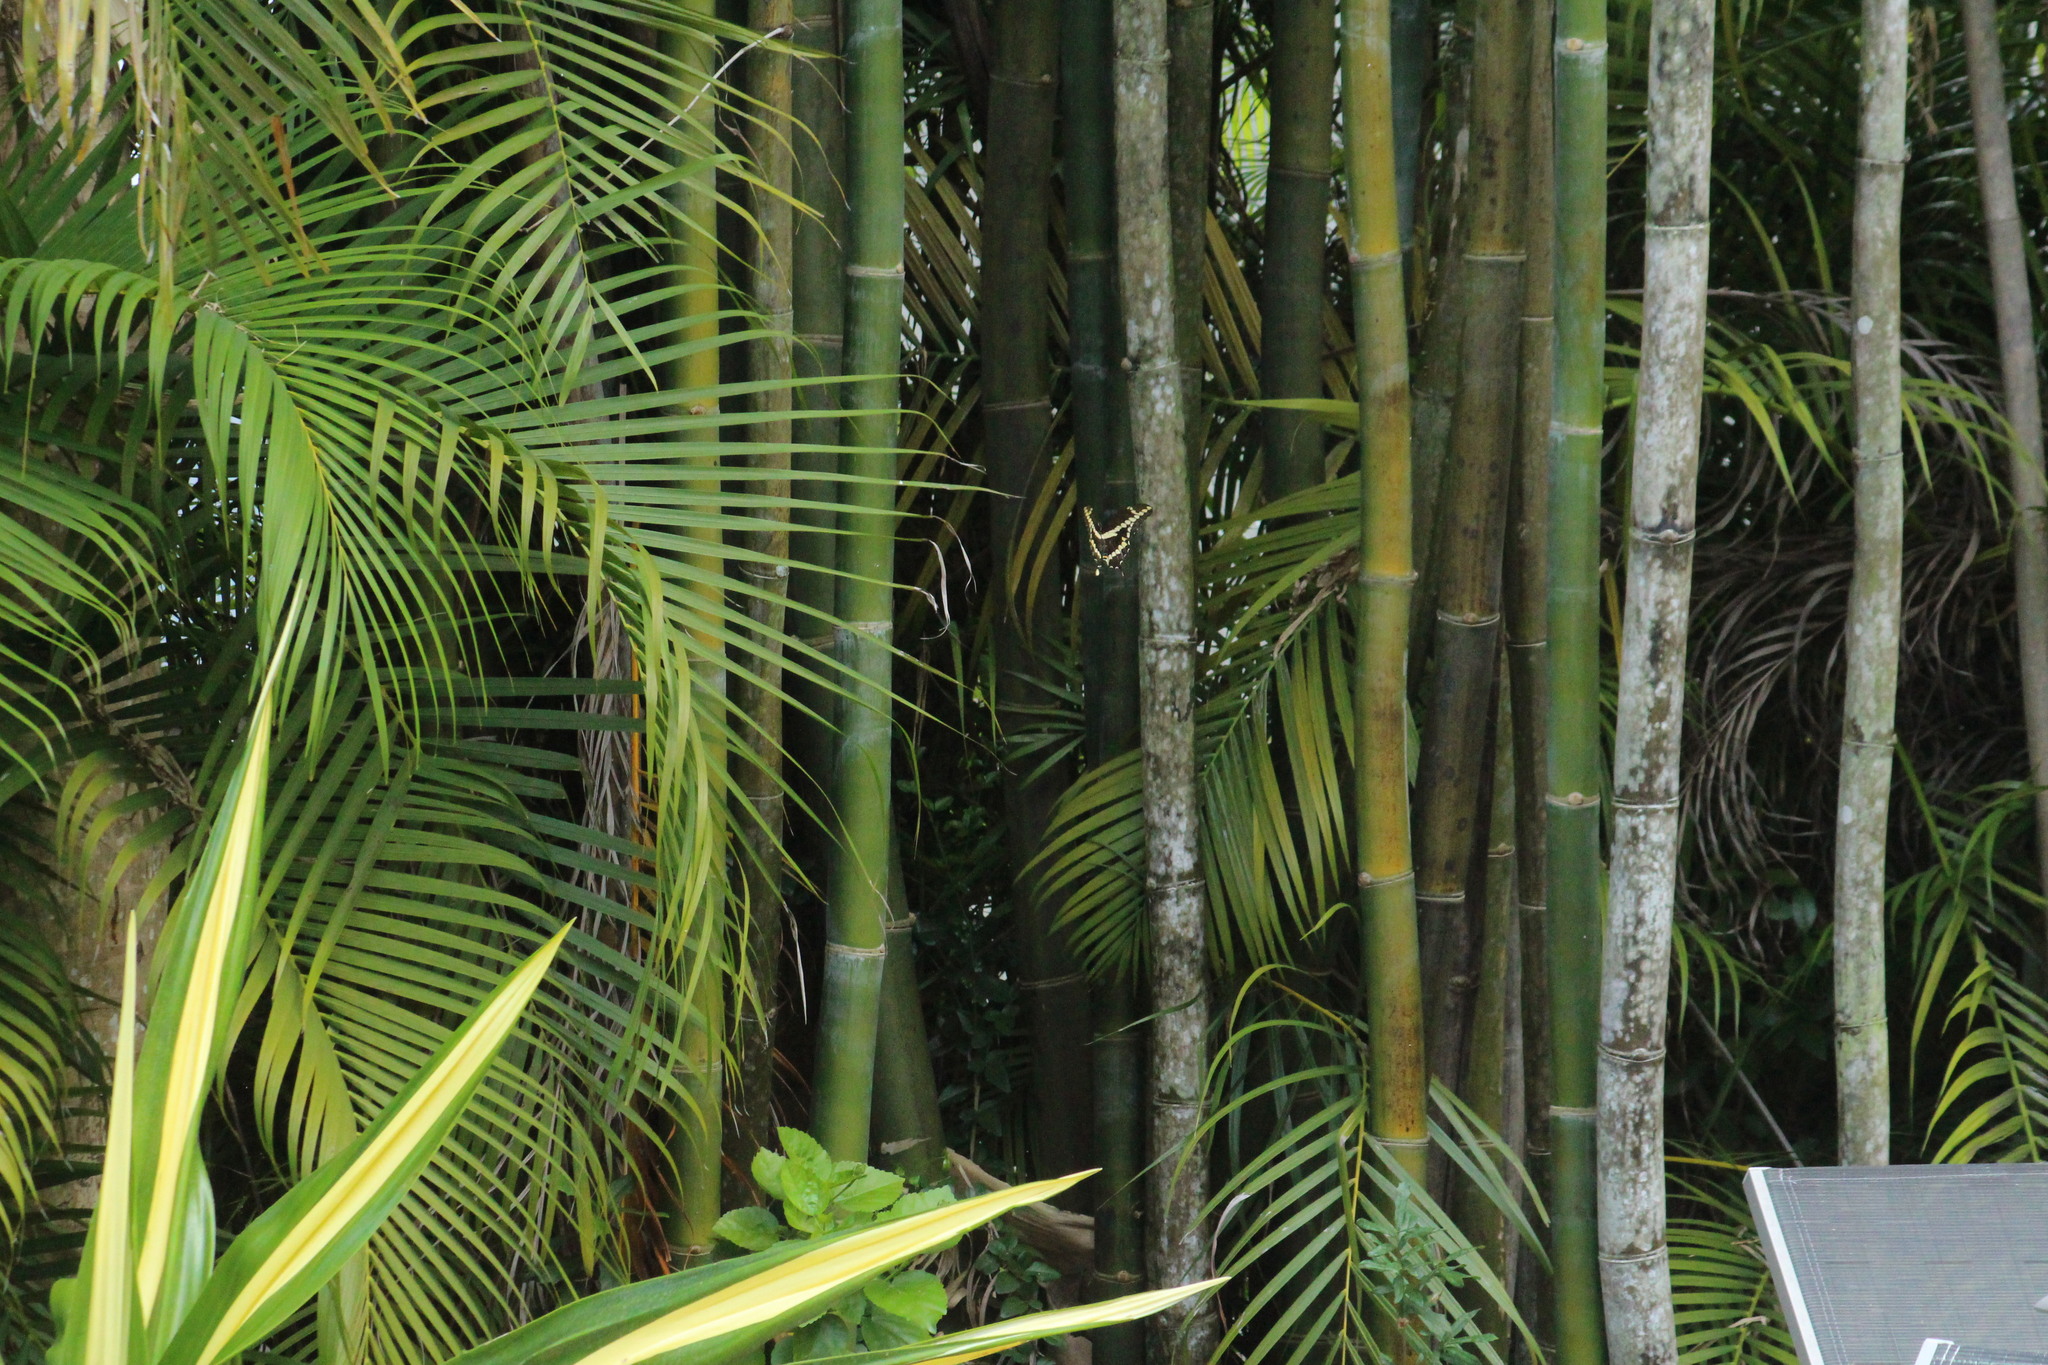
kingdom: Animalia
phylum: Arthropoda
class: Insecta
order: Lepidoptera
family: Papilionidae
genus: Papilio
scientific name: Papilio cresphontes
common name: Giant swallowtail
